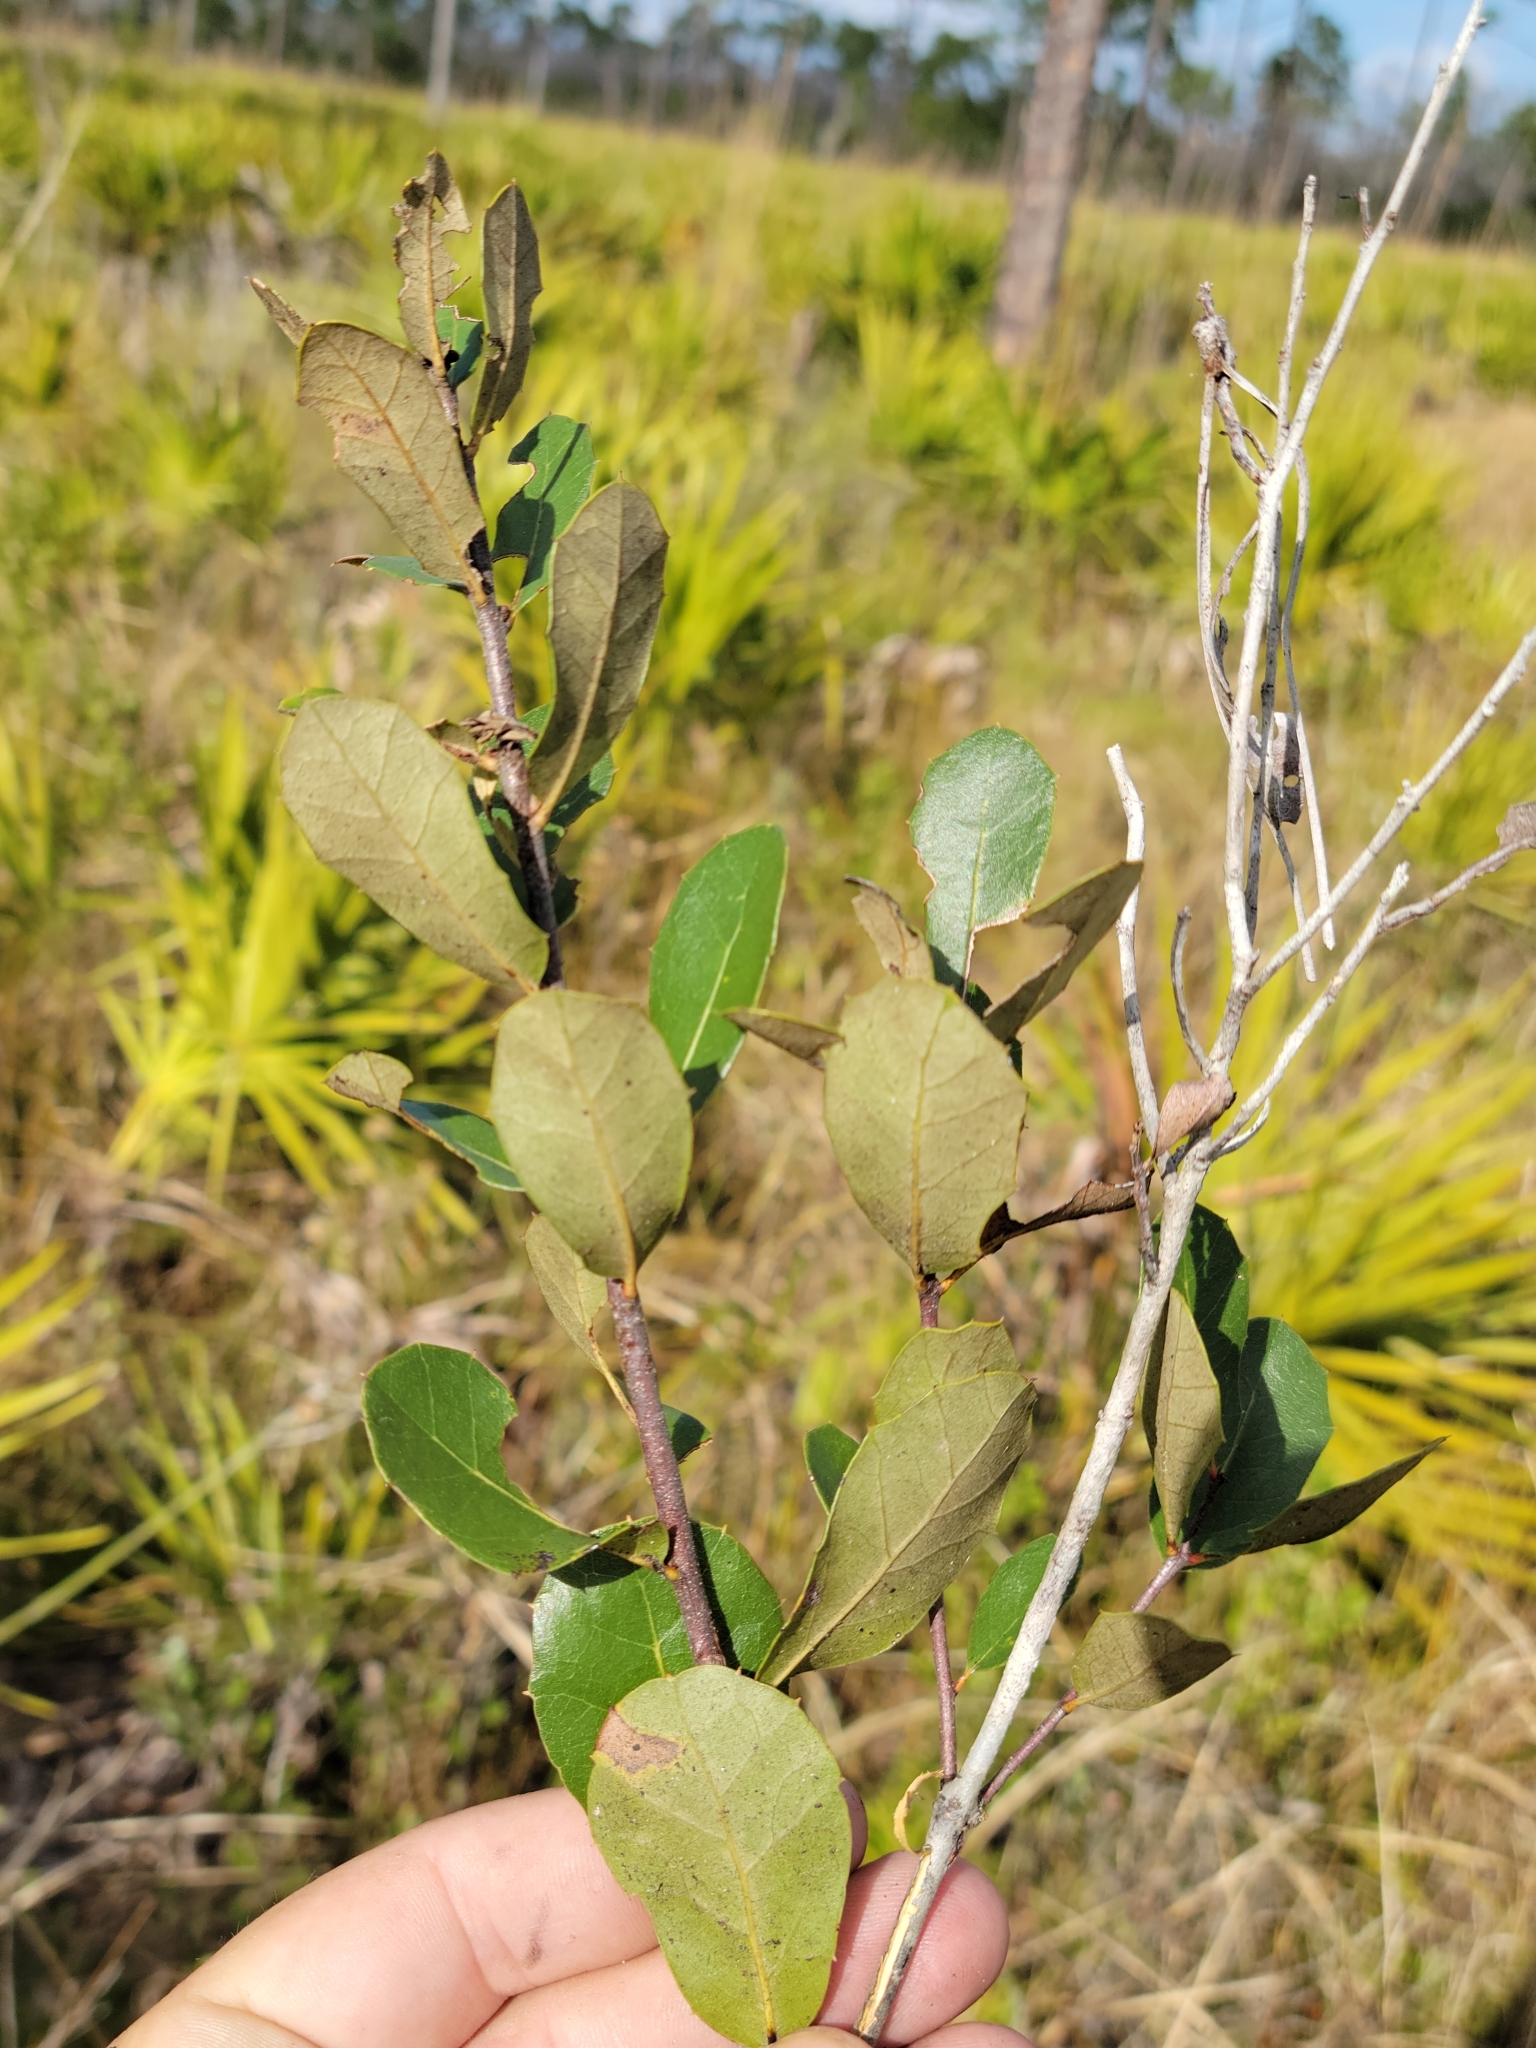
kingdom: Plantae
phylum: Tracheophyta
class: Magnoliopsida
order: Fagales
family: Fagaceae
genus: Quercus
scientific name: Quercus minima
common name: Dwarf live oak
